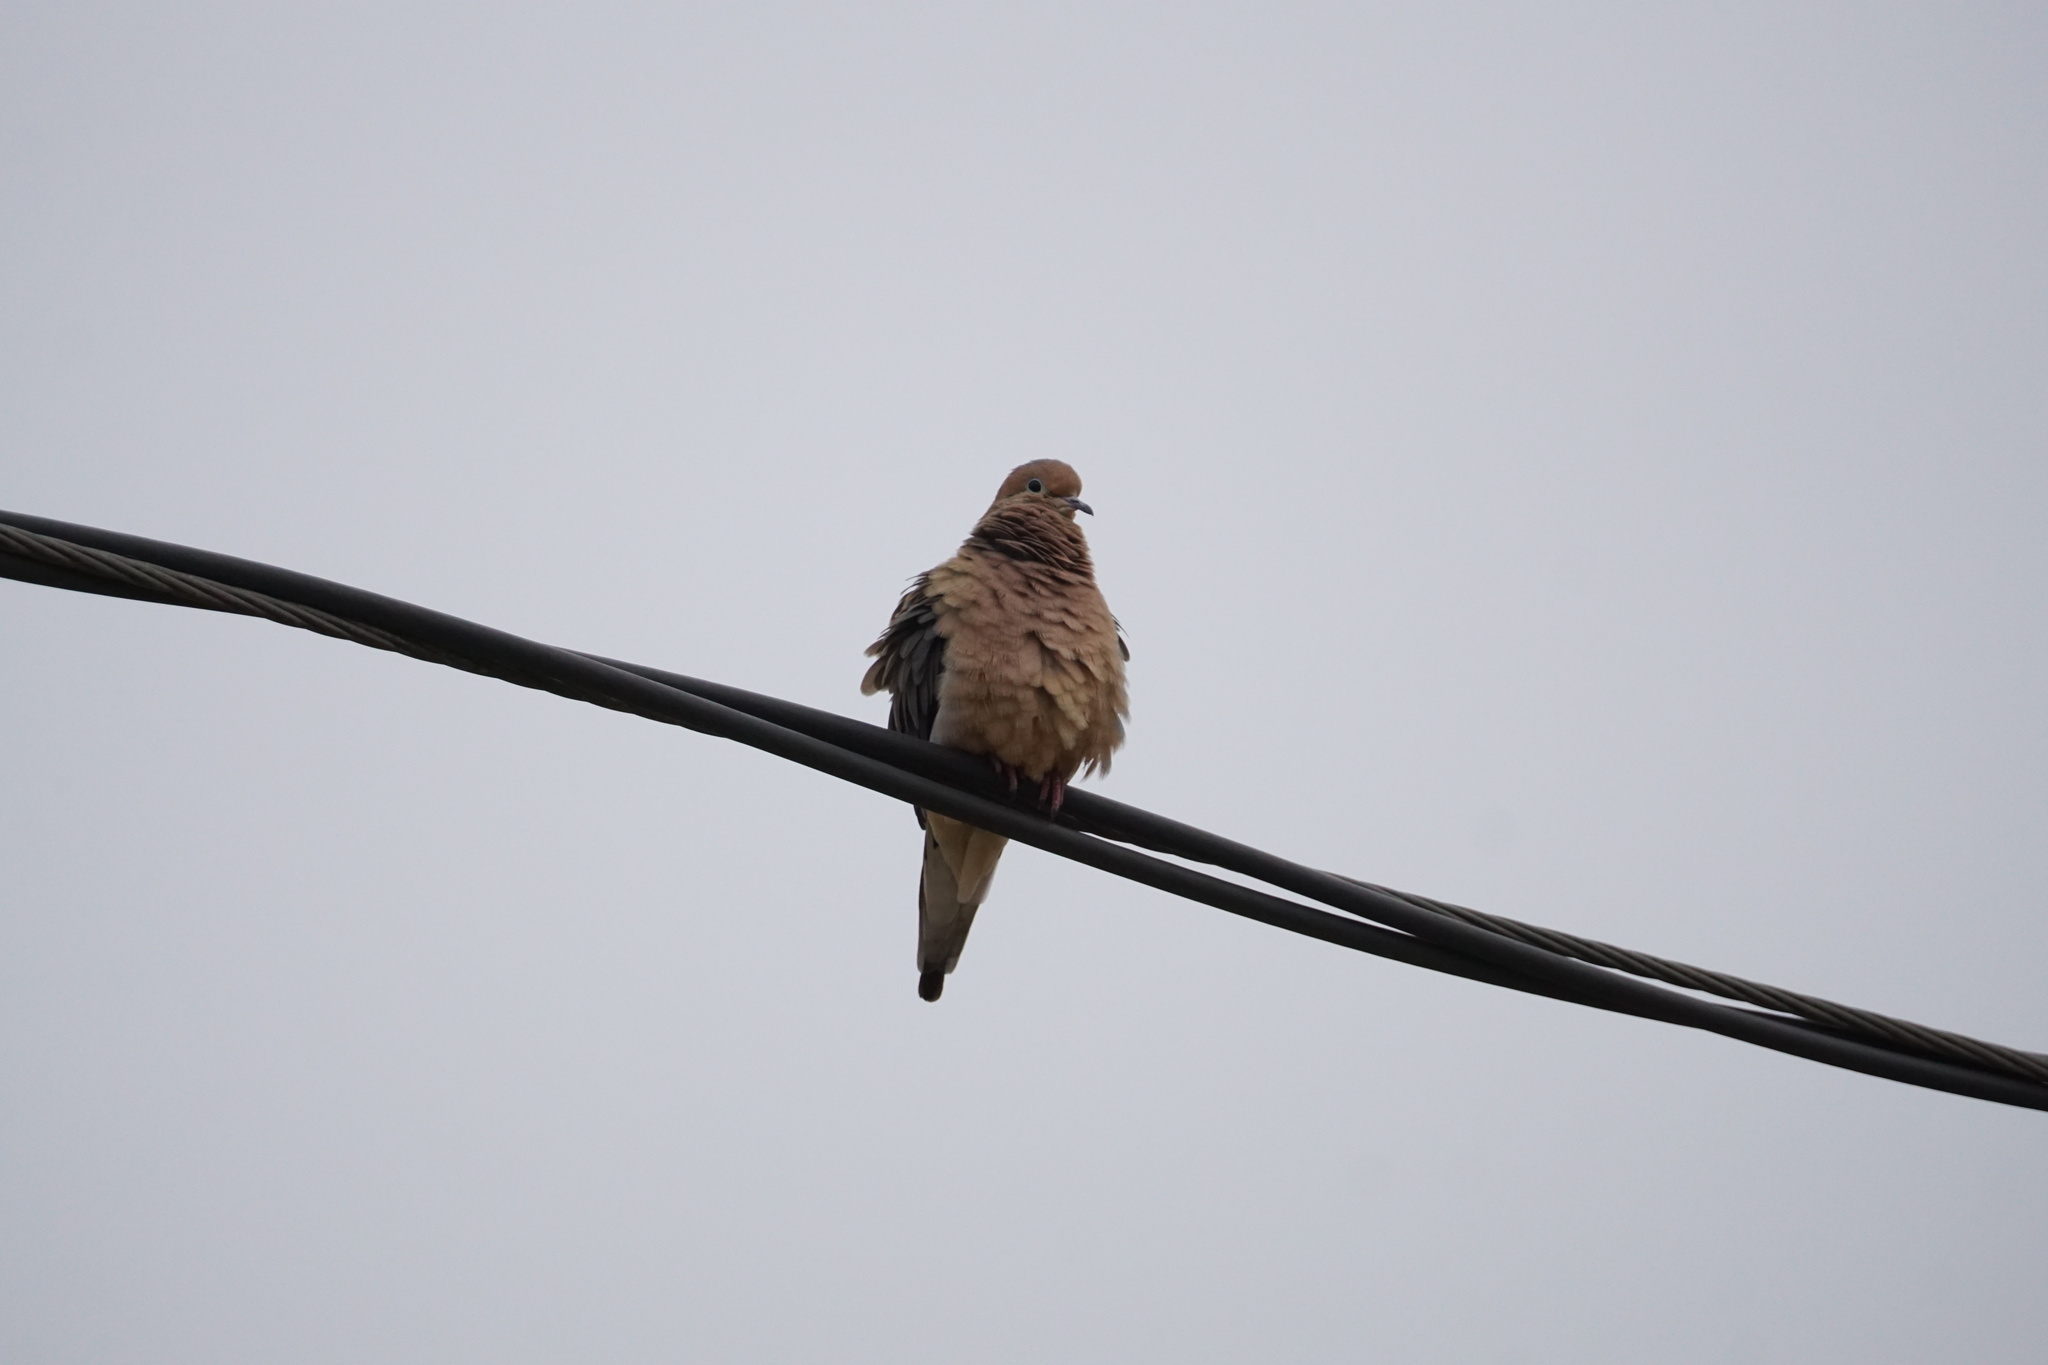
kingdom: Animalia
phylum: Chordata
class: Aves
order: Columbiformes
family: Columbidae
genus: Zenaida
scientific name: Zenaida macroura
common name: Mourning dove
